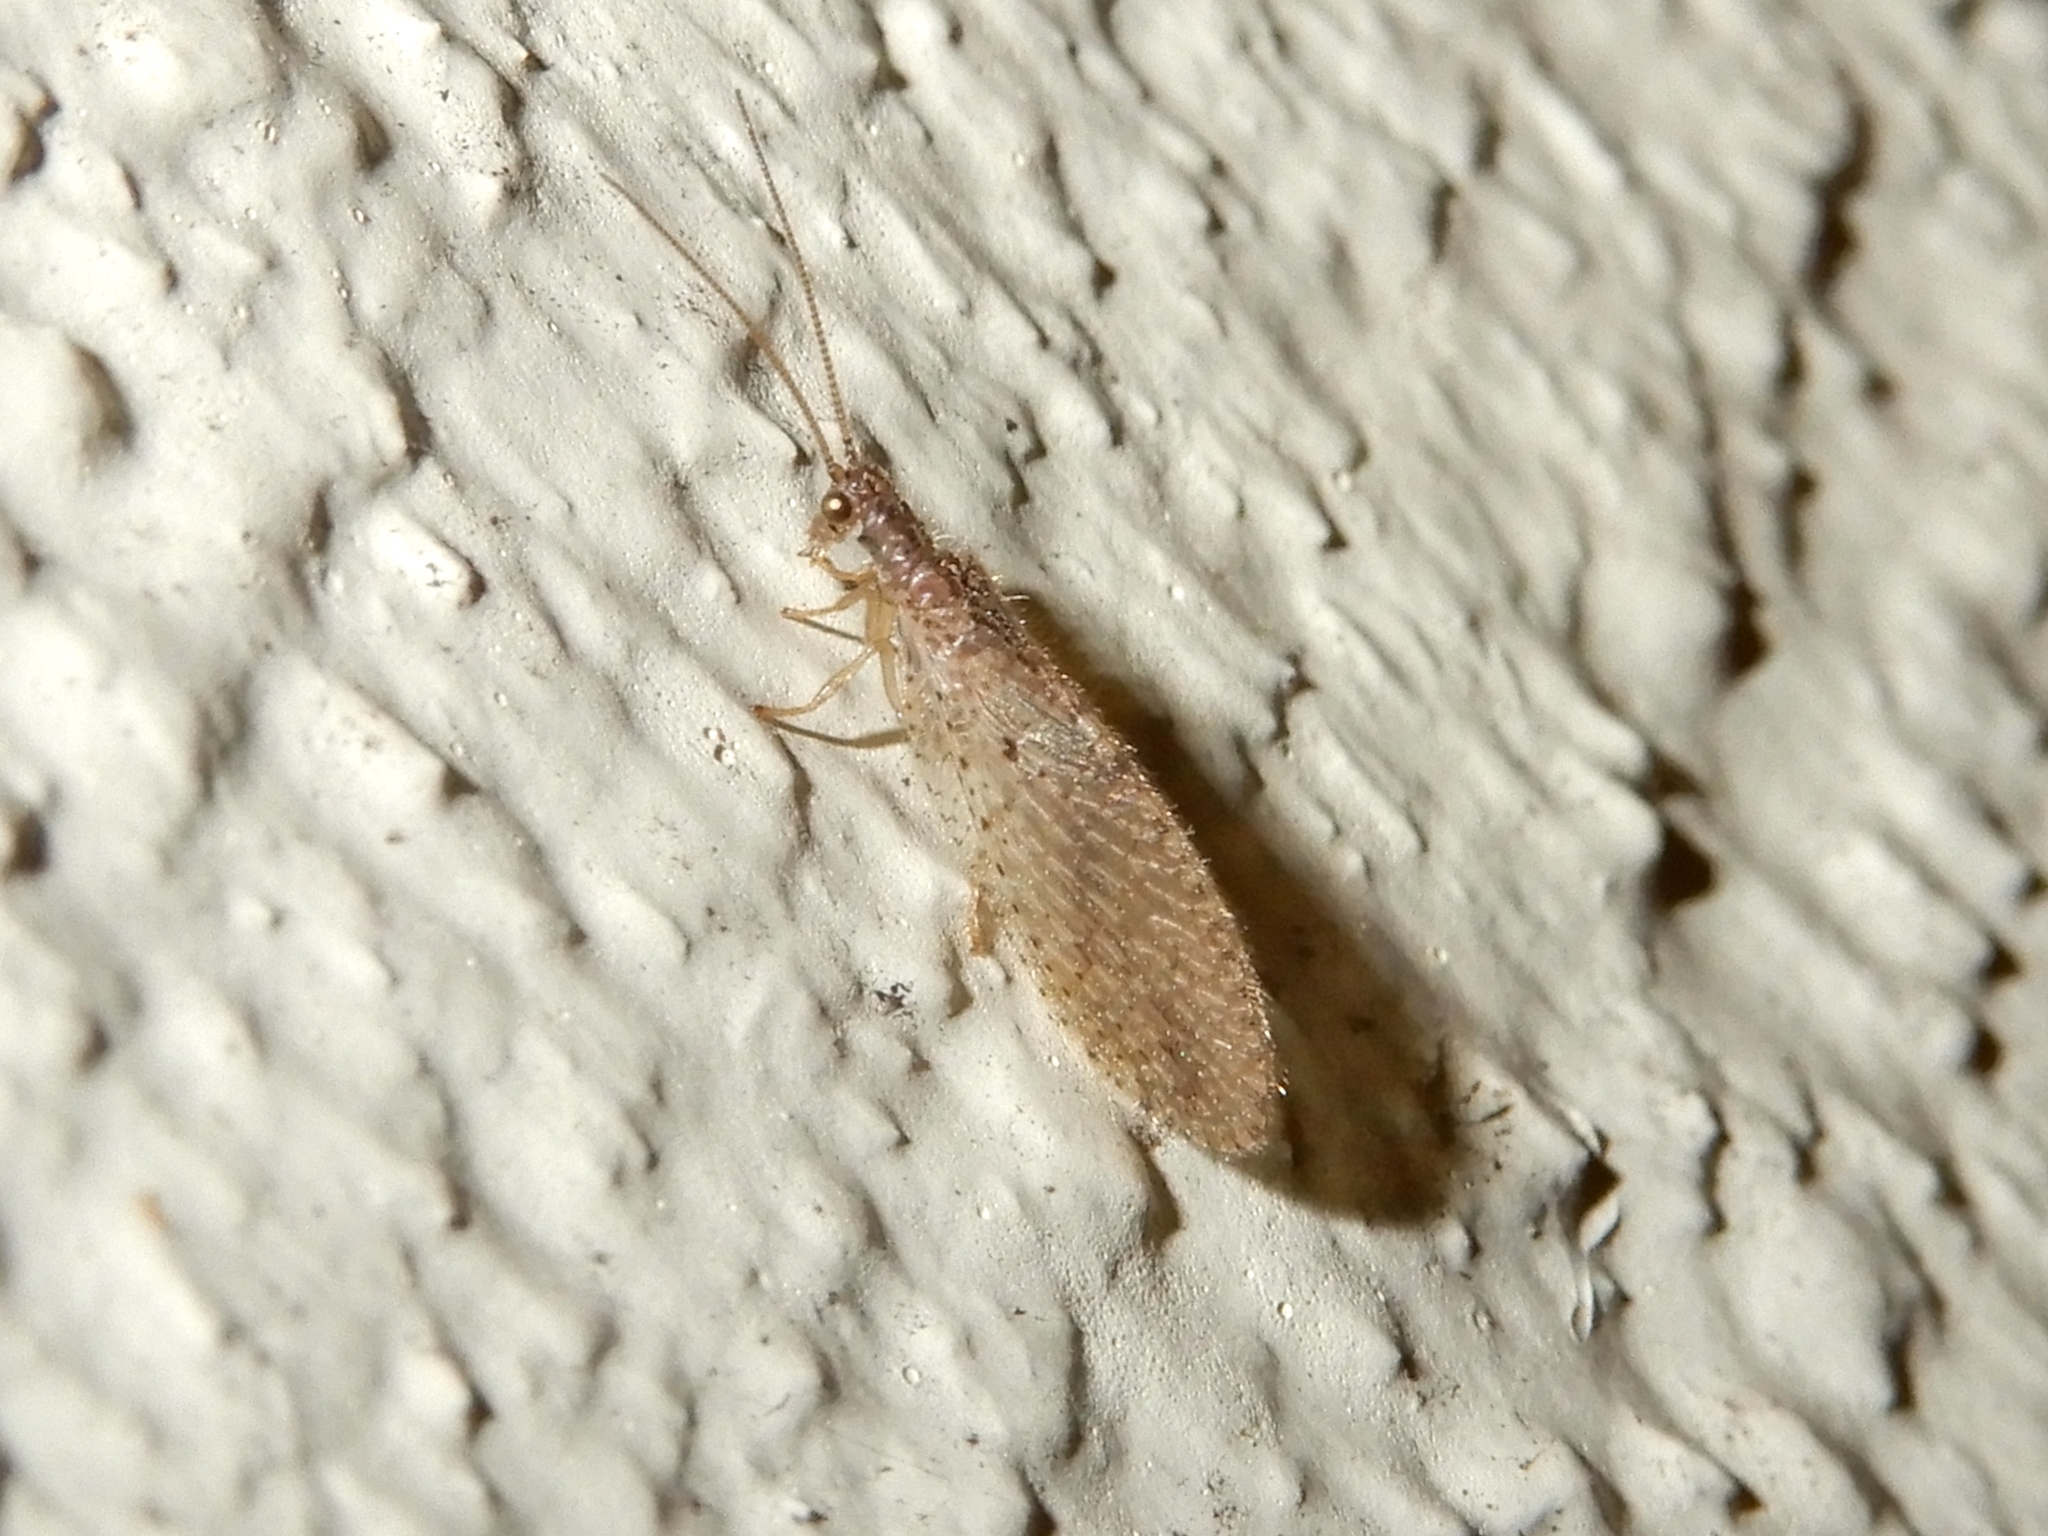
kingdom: Animalia
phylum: Arthropoda
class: Insecta
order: Neuroptera
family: Hemerobiidae
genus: Micromus
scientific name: Micromus tasmaniae
